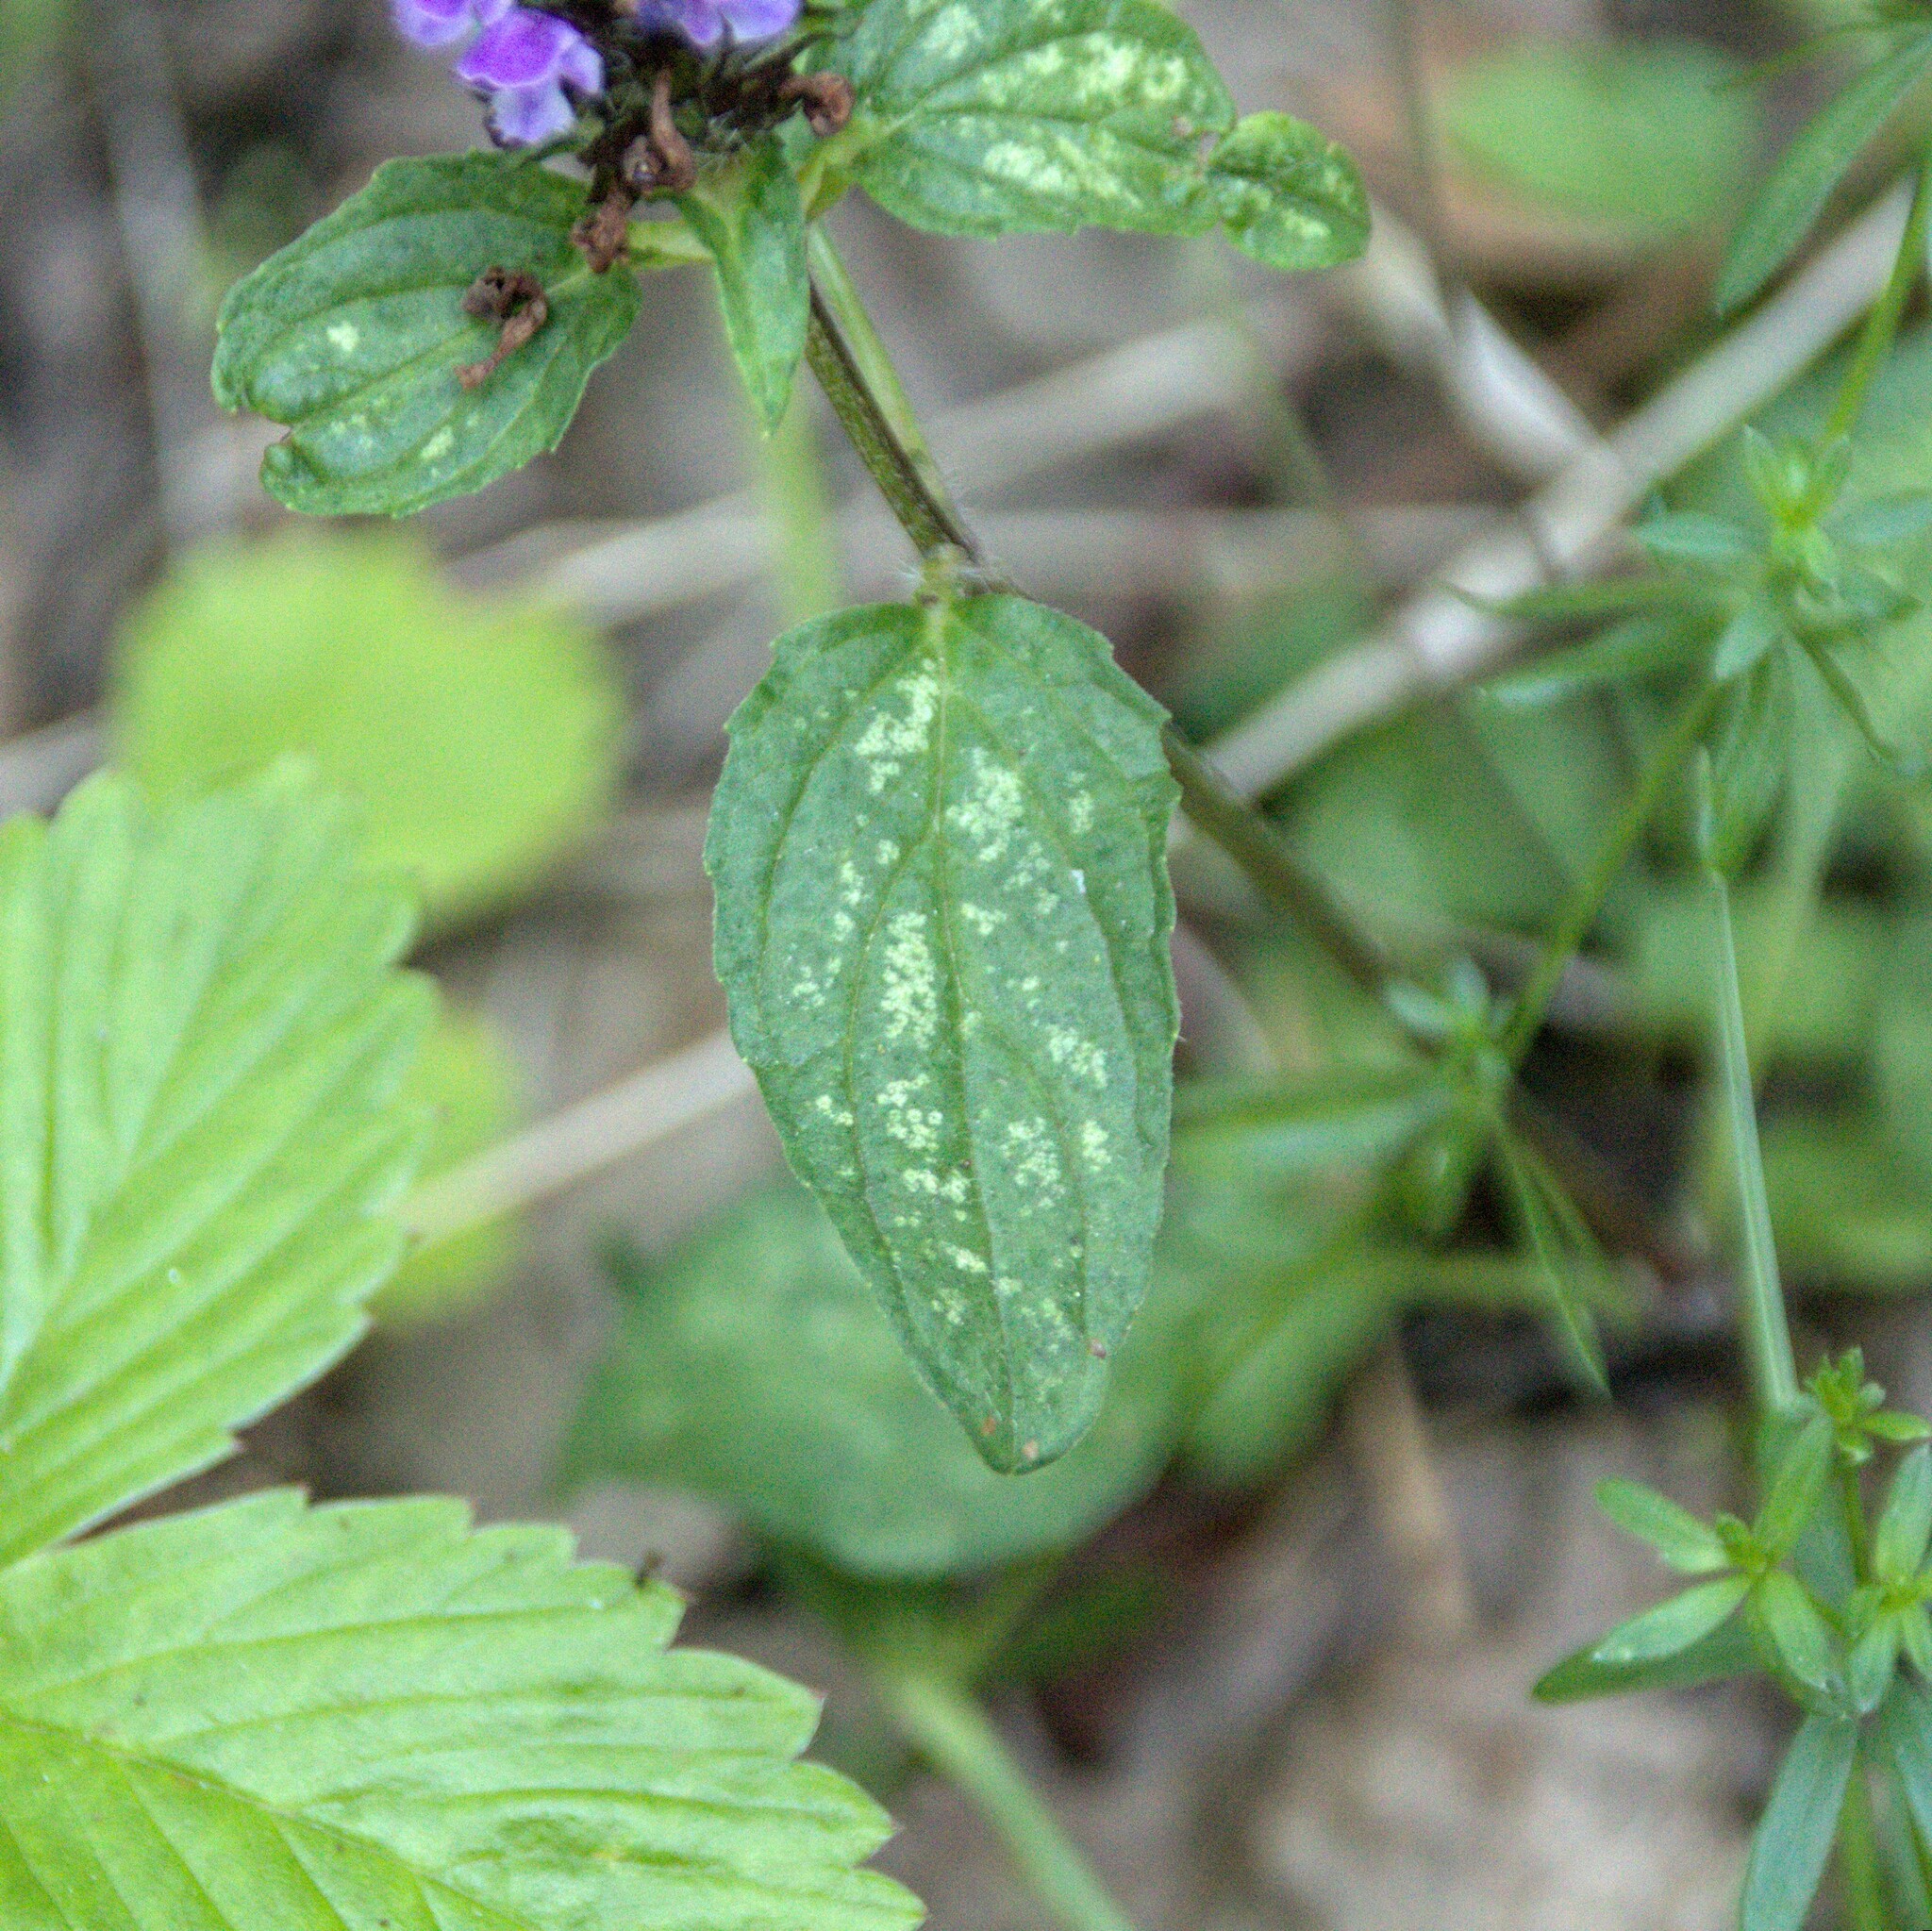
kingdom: Plantae
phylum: Tracheophyta
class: Magnoliopsida
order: Lamiales
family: Lamiaceae
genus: Prunella
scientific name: Prunella vulgaris
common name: Heal-all
